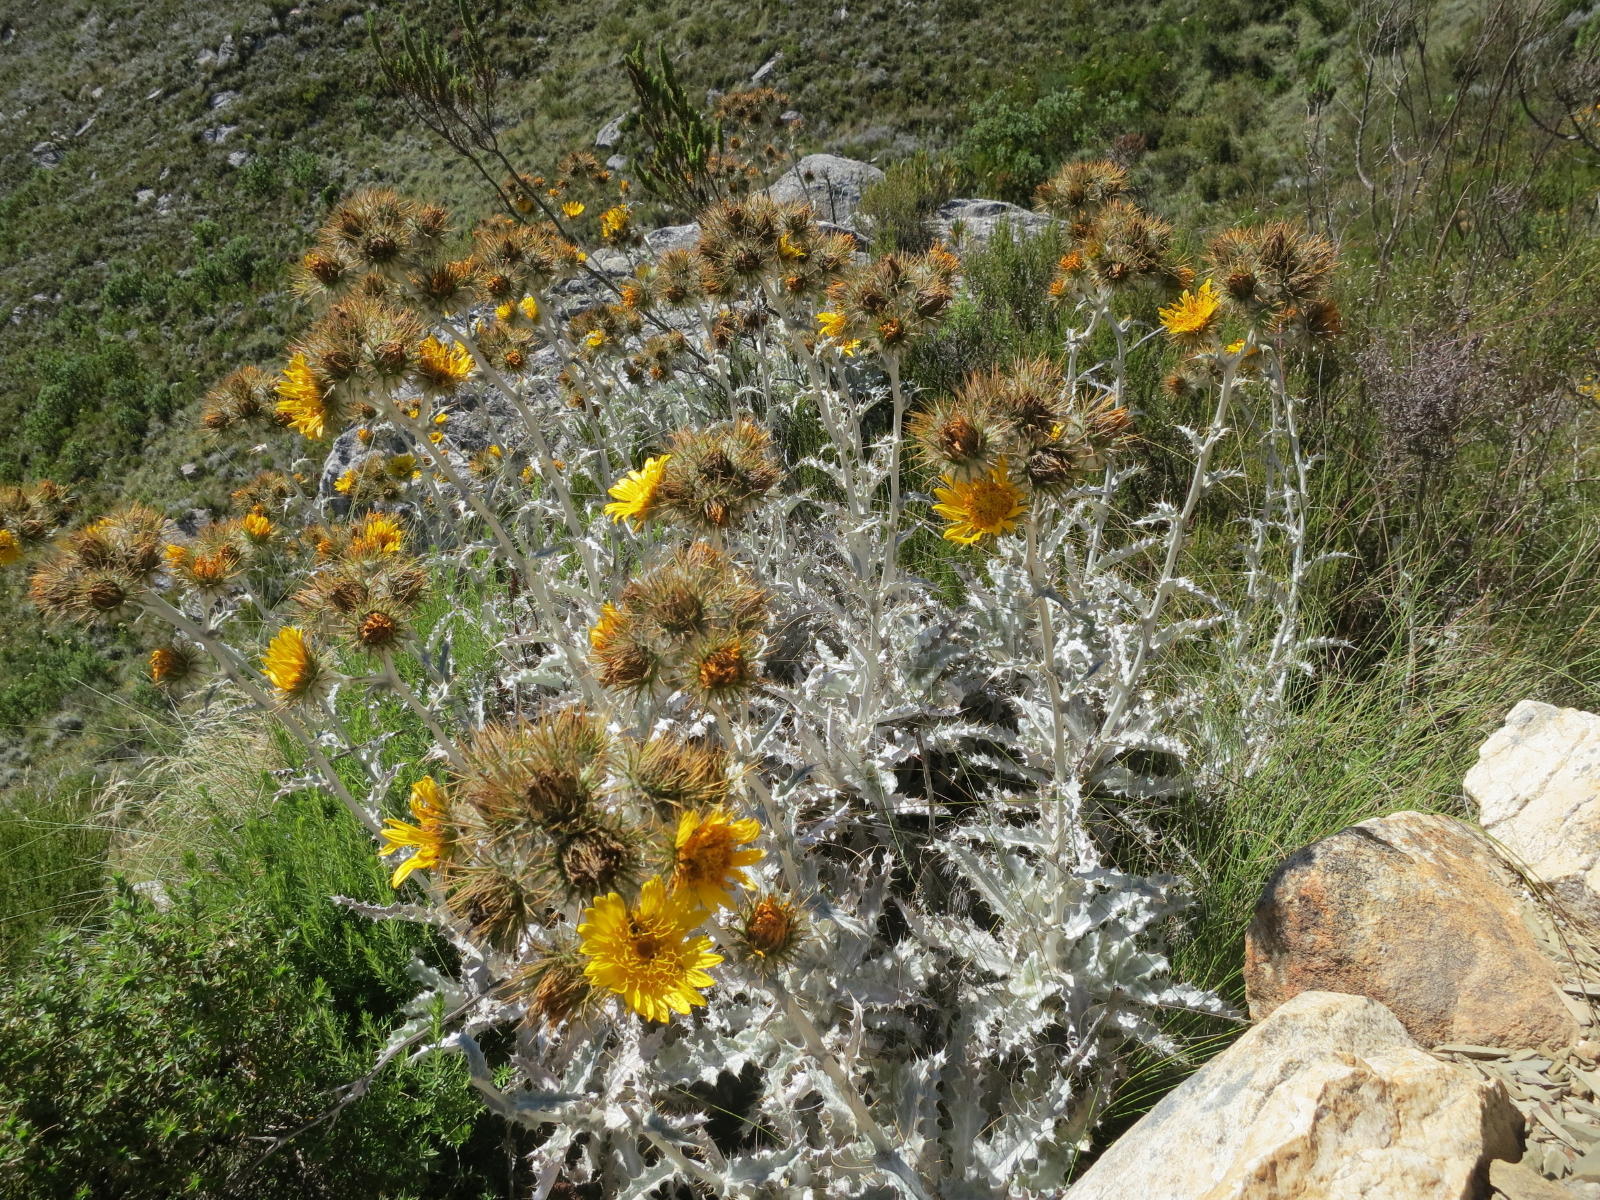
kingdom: Plantae
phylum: Tracheophyta
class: Magnoliopsida
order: Asterales
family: Asteraceae
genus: Berkheya
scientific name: Berkheya francisci
